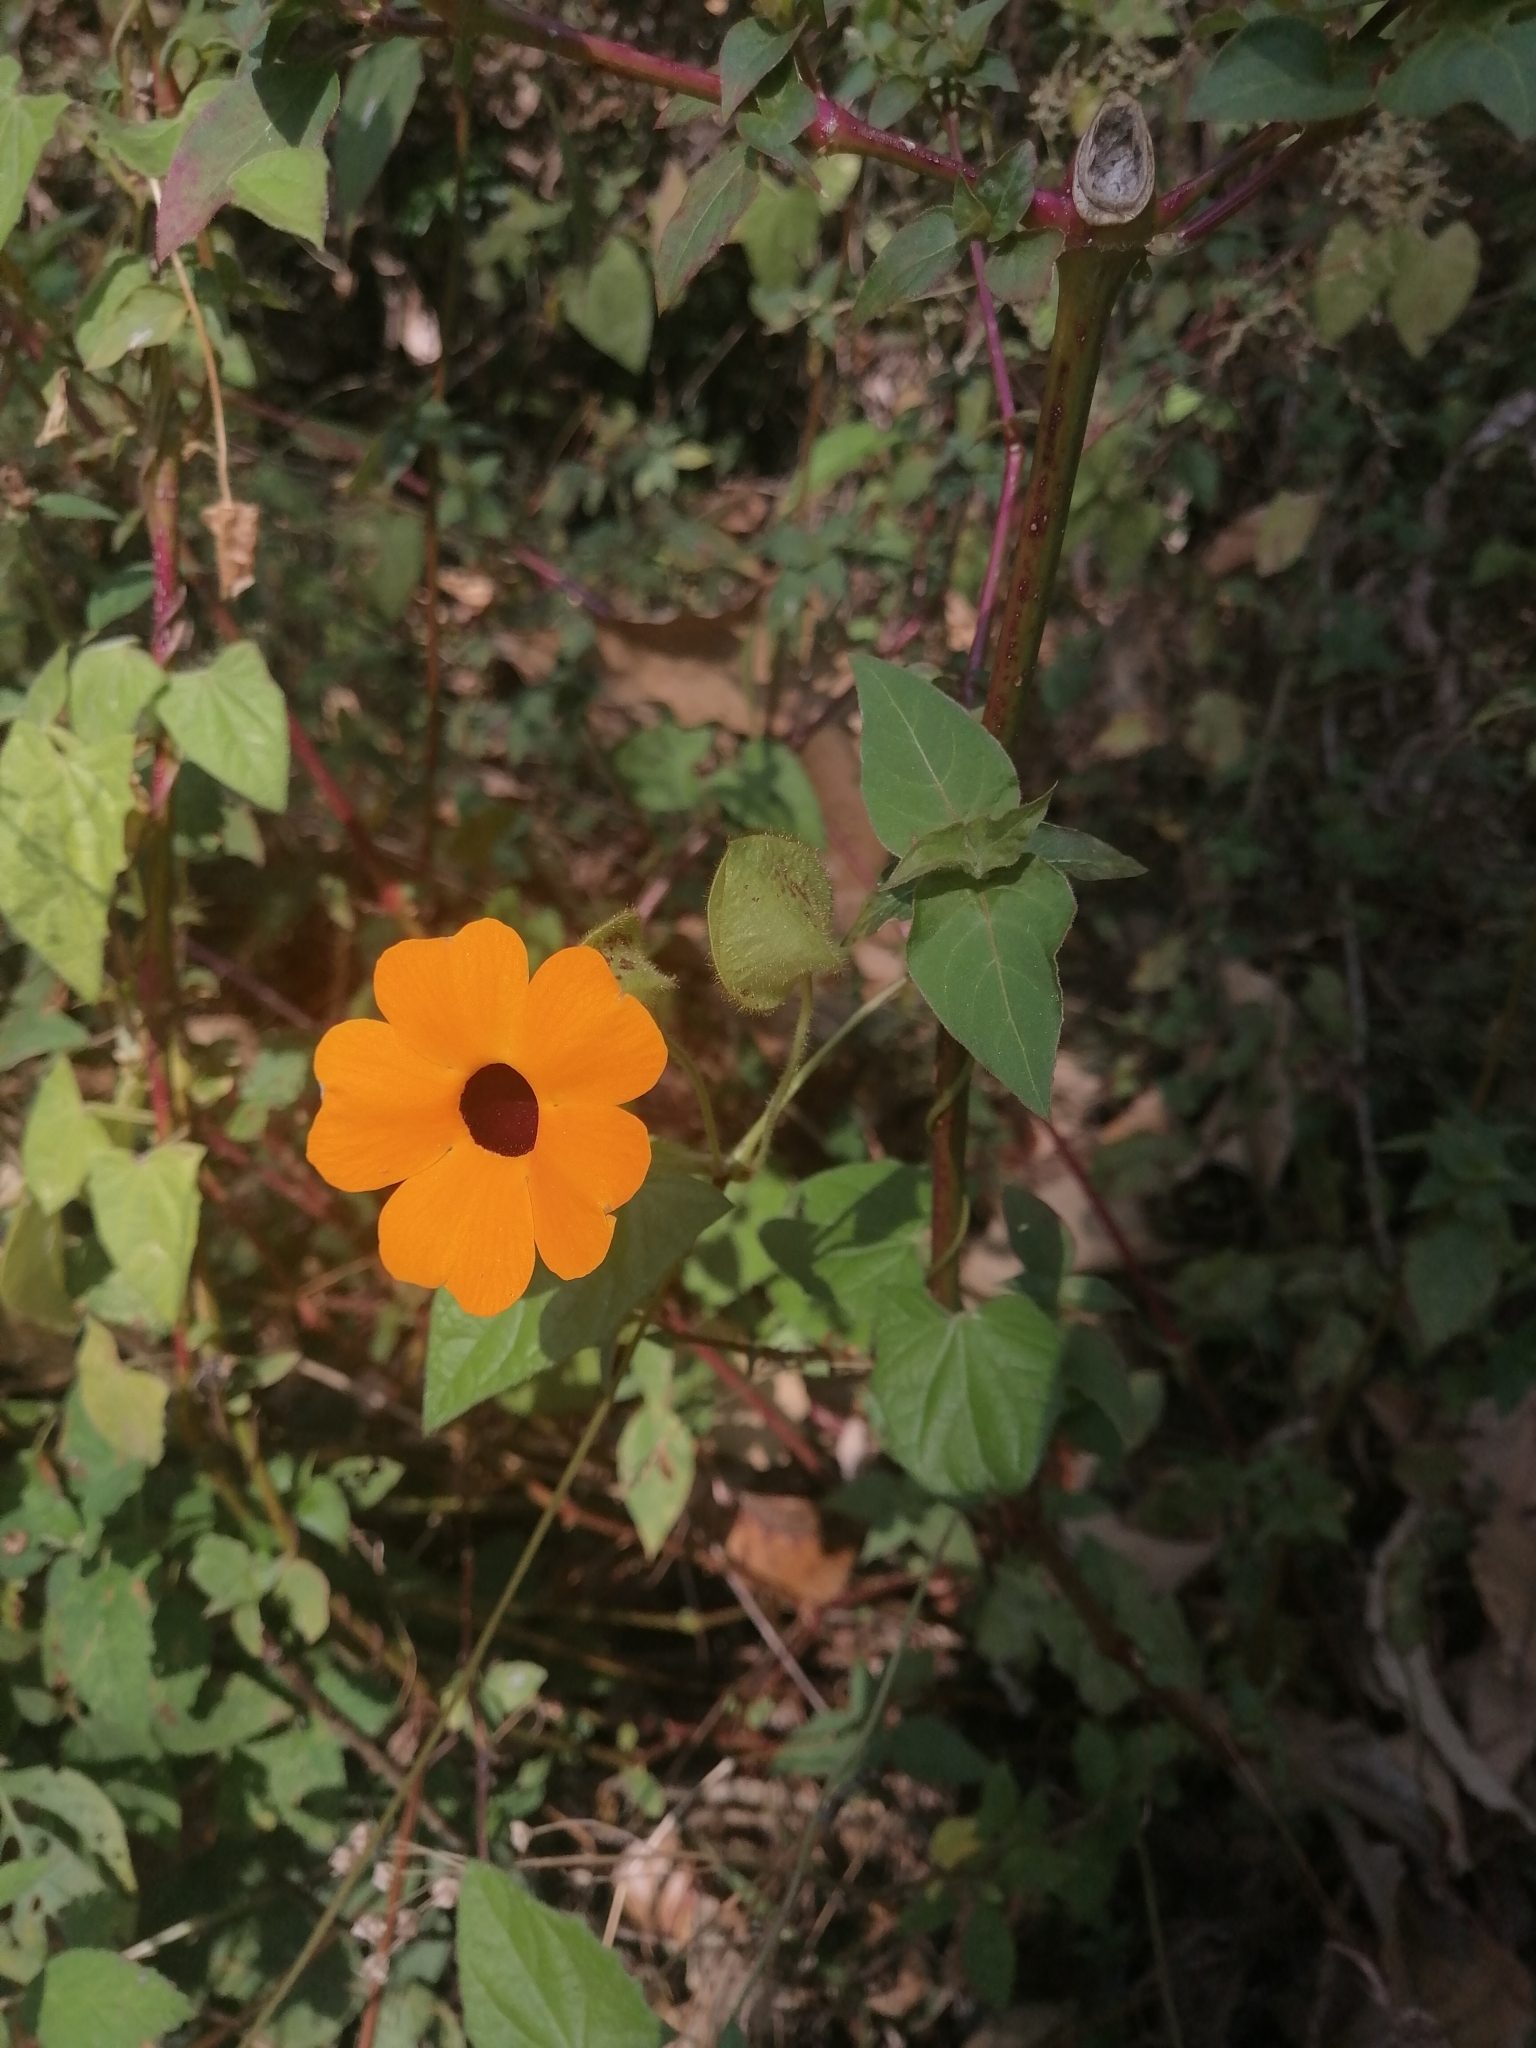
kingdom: Plantae
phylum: Tracheophyta
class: Magnoliopsida
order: Lamiales
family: Acanthaceae
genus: Thunbergia
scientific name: Thunbergia alata
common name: Blackeyed susan vine
